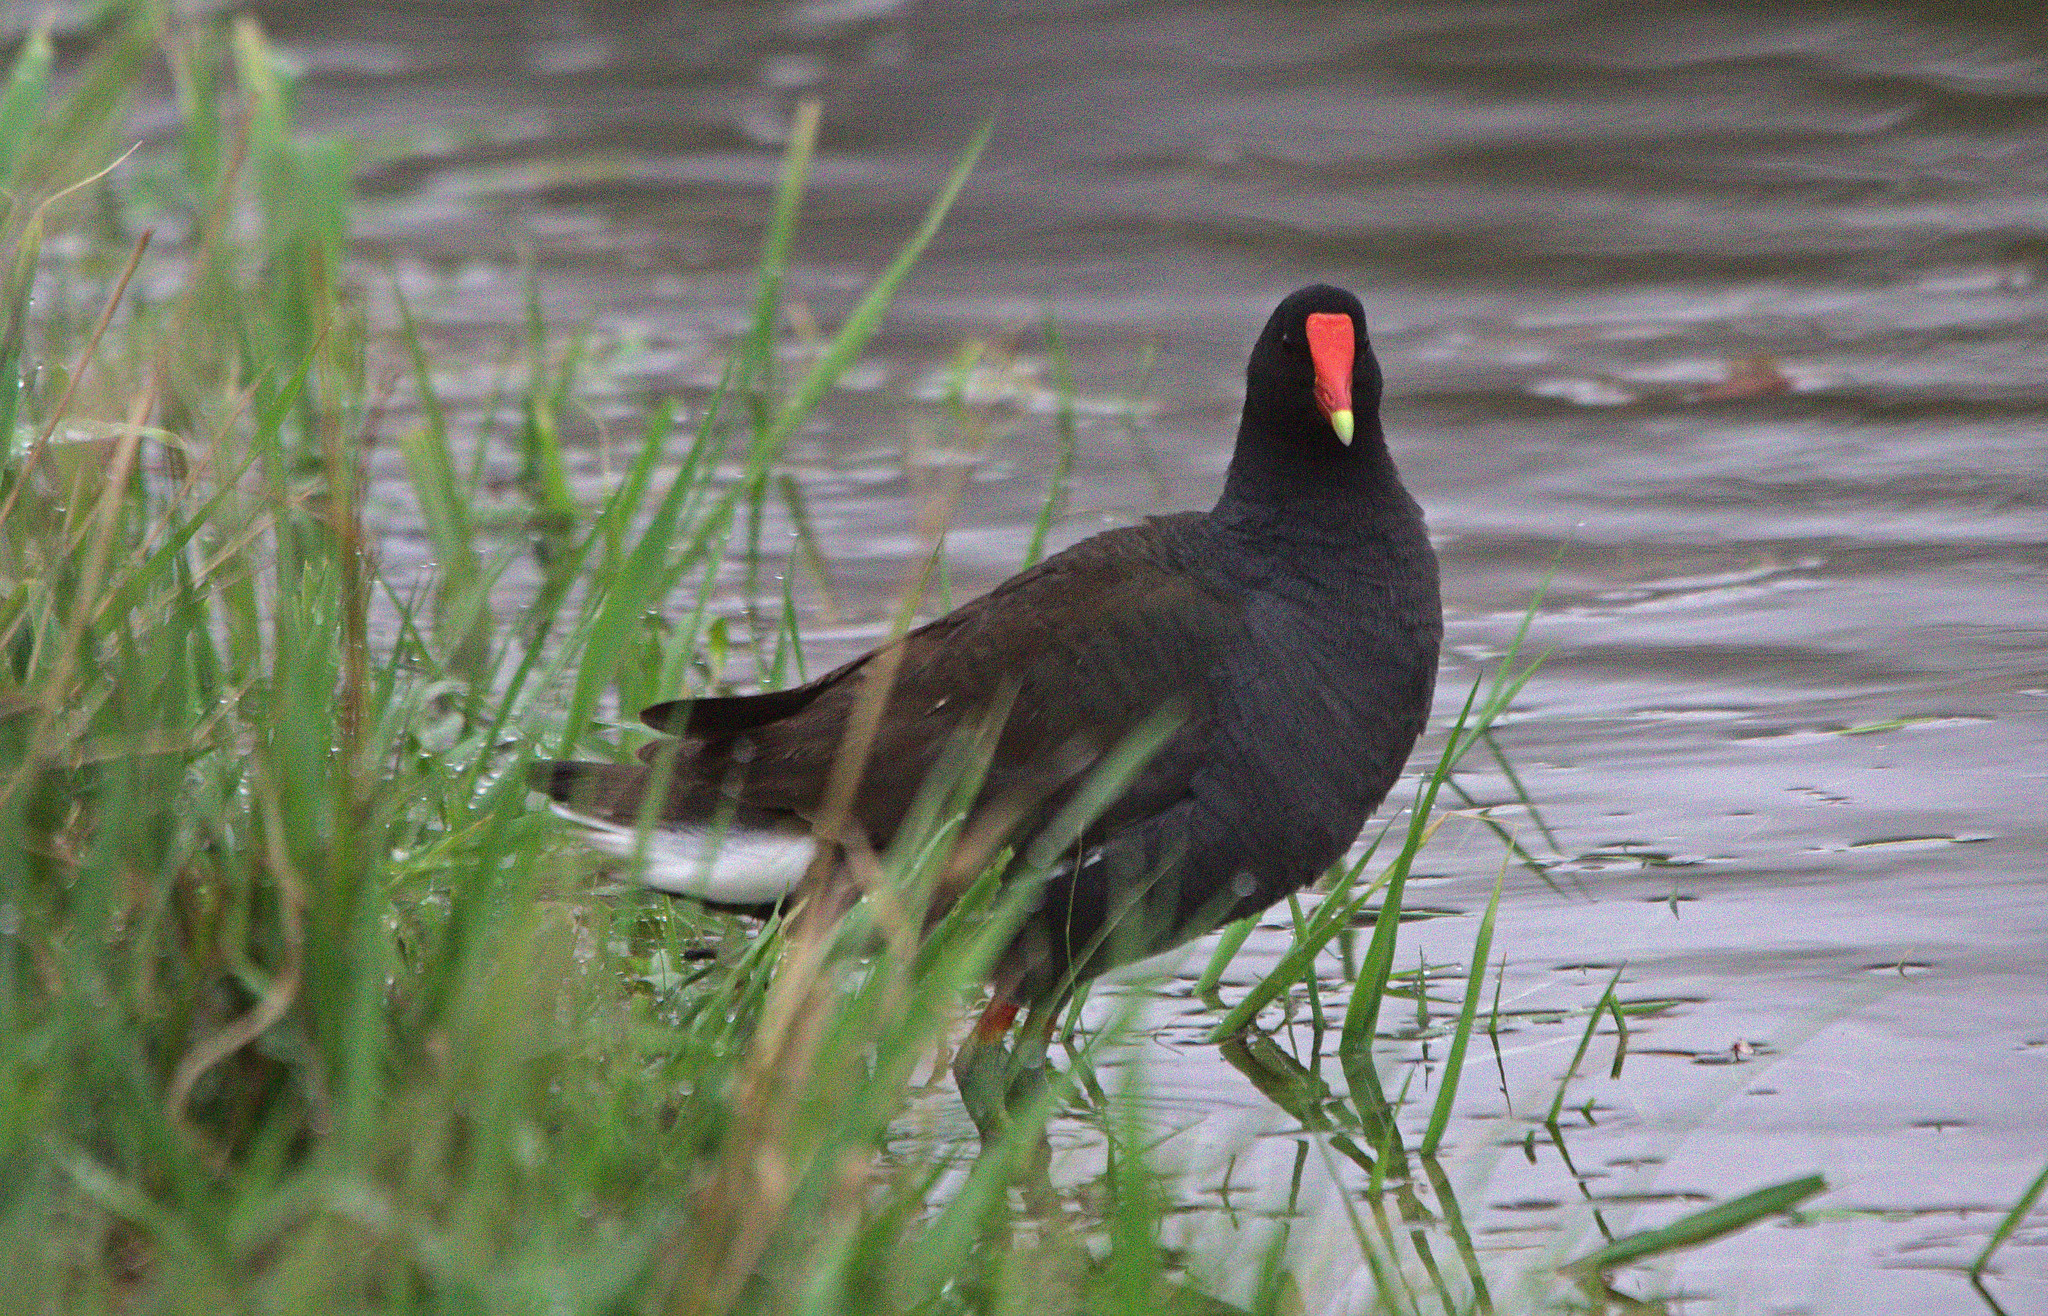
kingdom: Animalia
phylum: Chordata
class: Aves
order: Gruiformes
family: Rallidae
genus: Gallinula
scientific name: Gallinula chloropus
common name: Common moorhen
